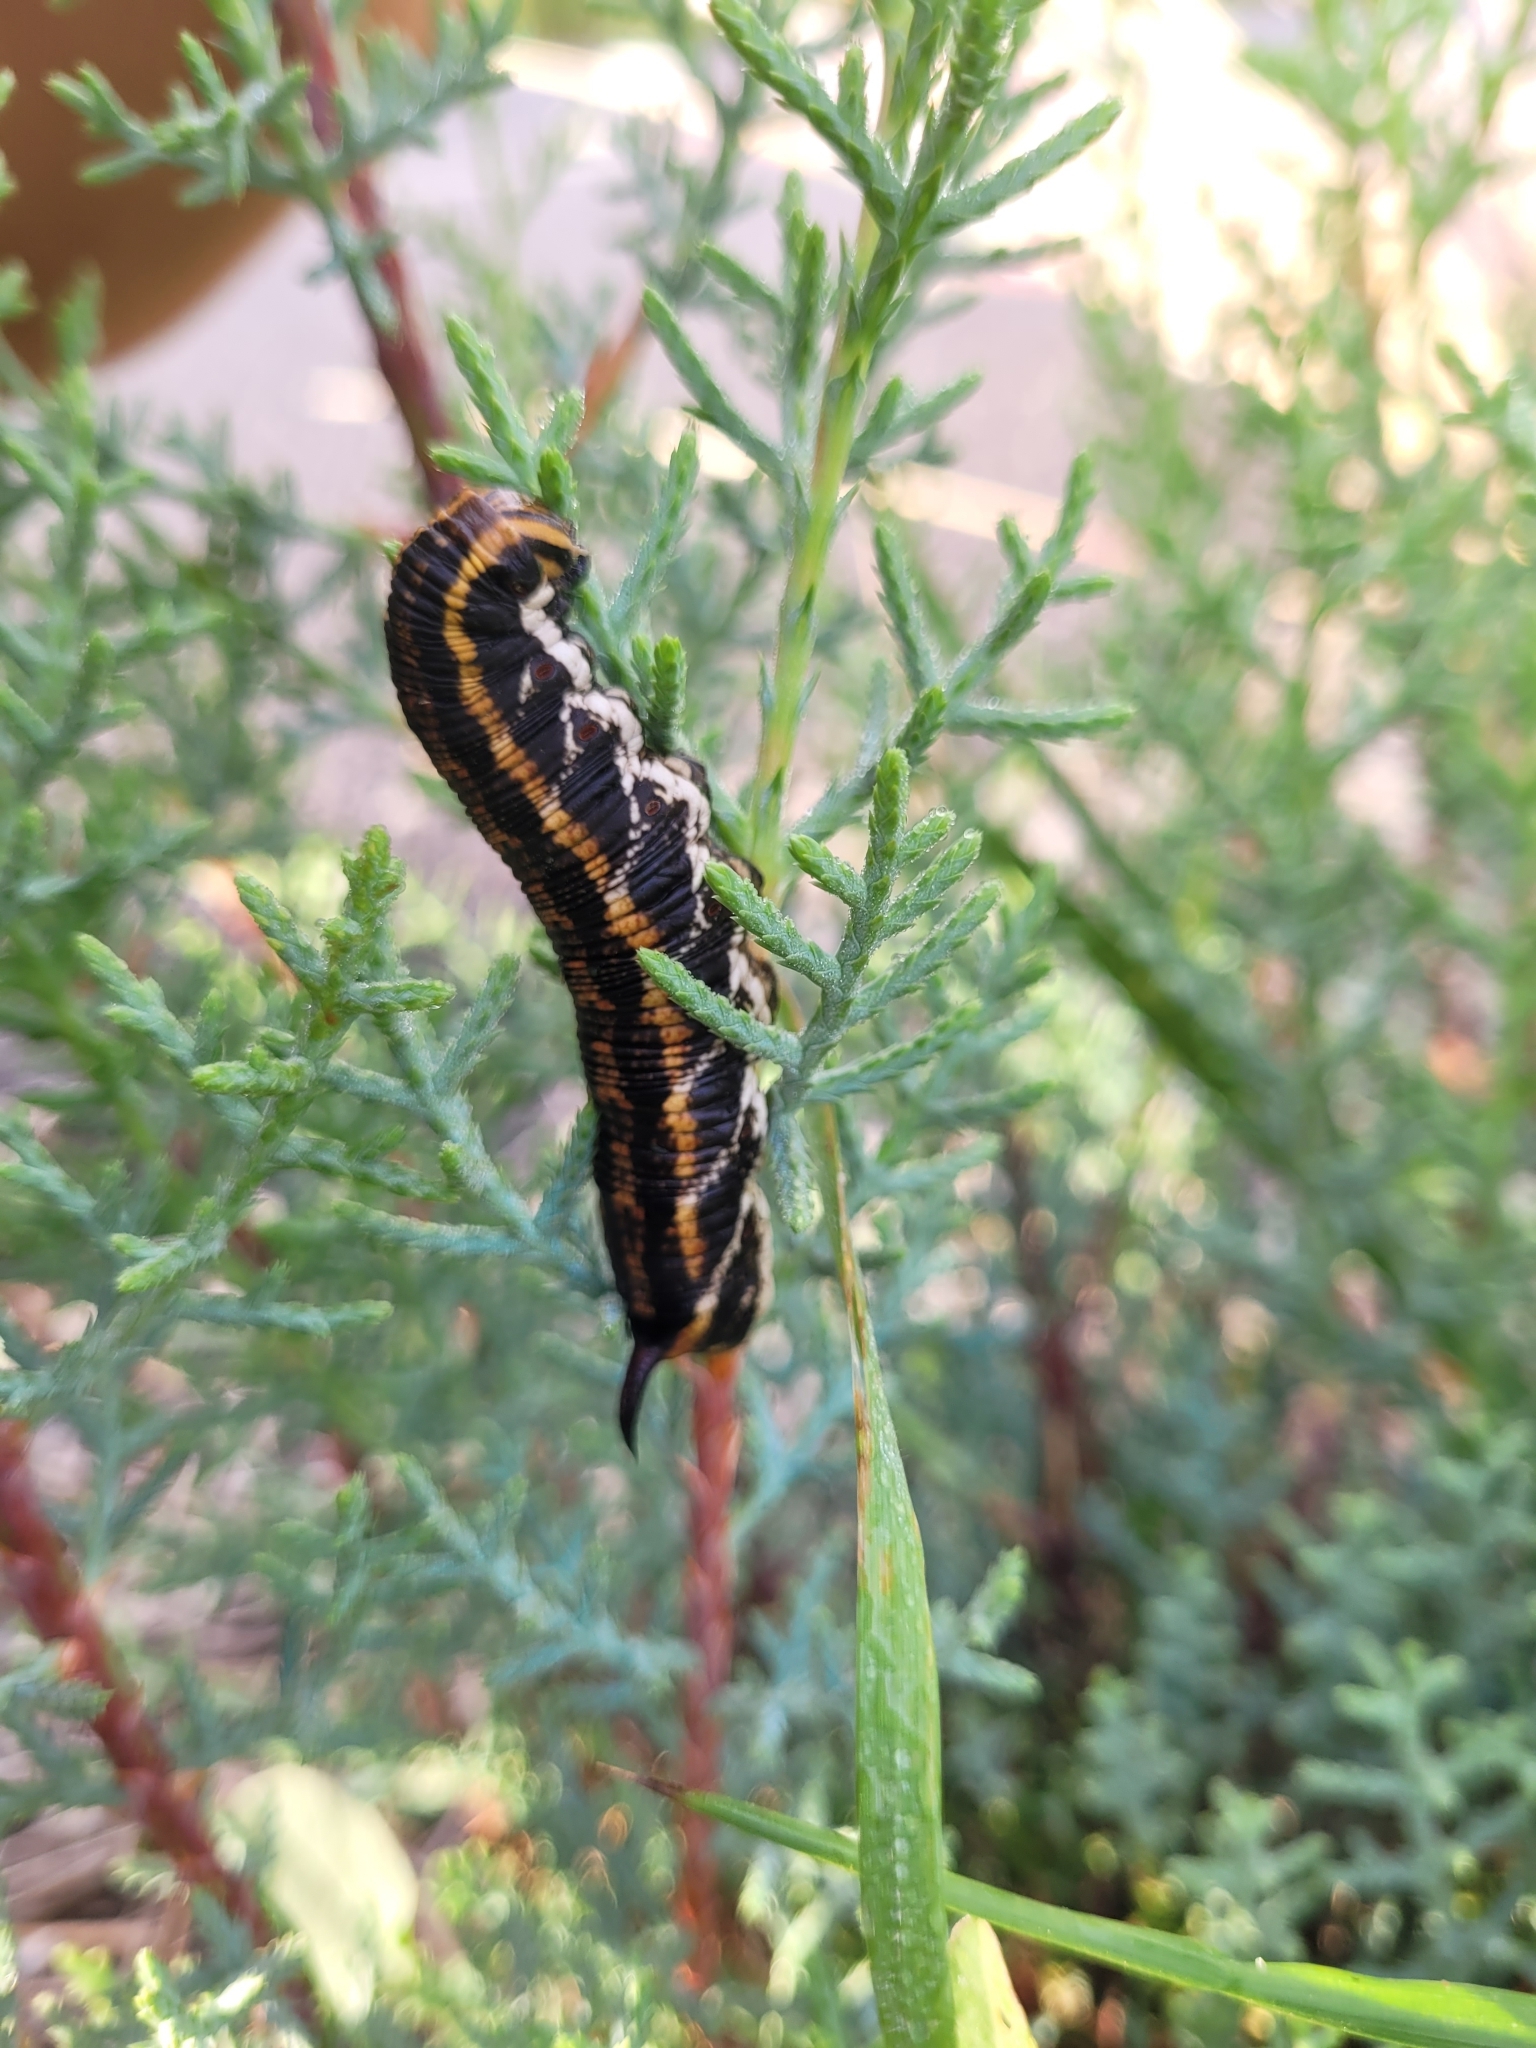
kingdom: Animalia
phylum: Arthropoda
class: Insecta
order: Lepidoptera
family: Sphingidae
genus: Agrius
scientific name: Agrius convolvuli
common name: Convolvulus hawkmoth
